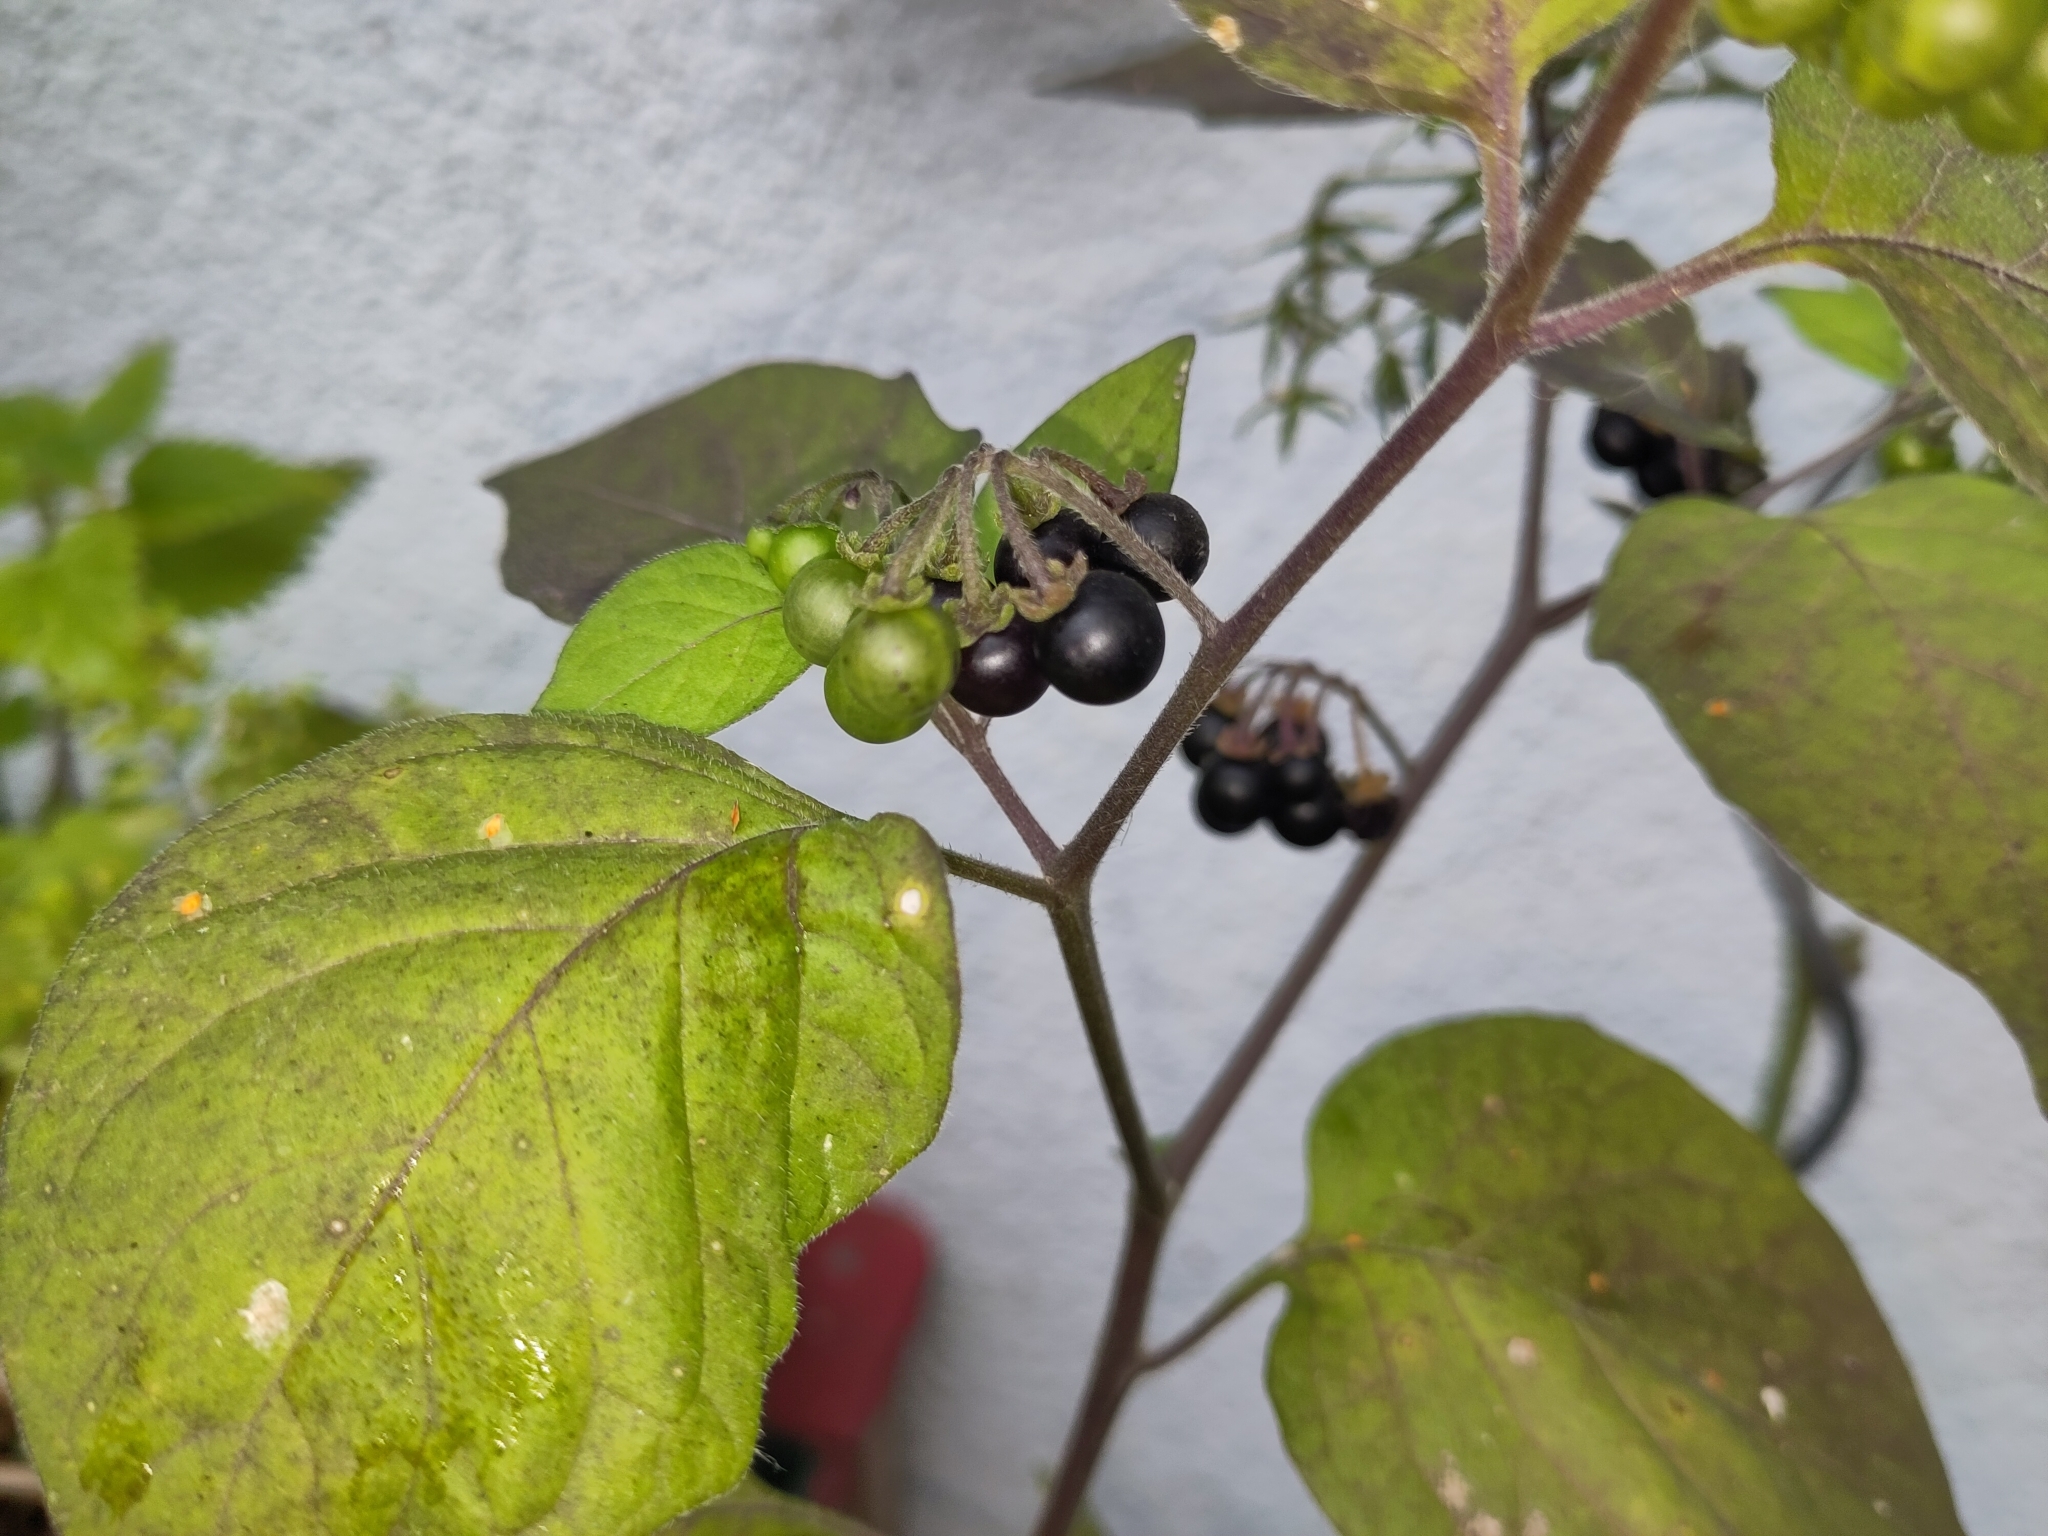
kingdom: Plantae
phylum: Tracheophyta
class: Magnoliopsida
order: Solanales
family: Solanaceae
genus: Solanum
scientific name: Solanum nigrum
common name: Black nightshade
